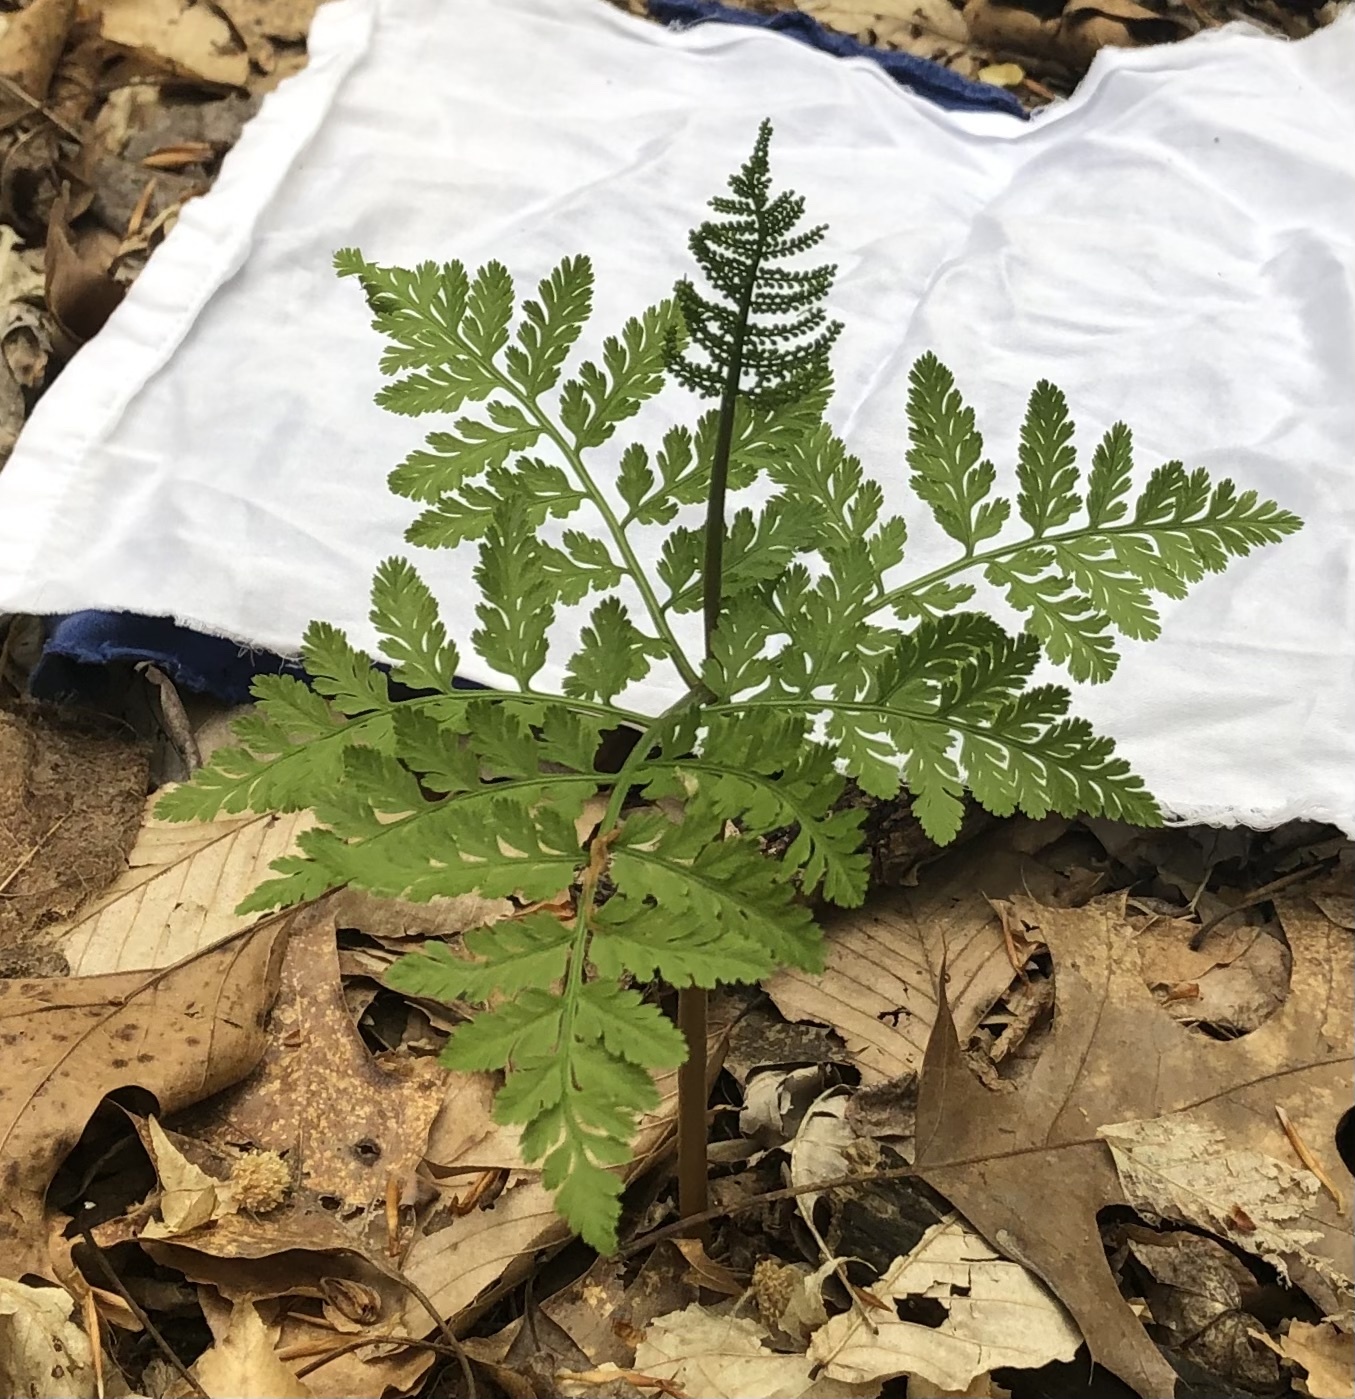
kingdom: Plantae
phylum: Tracheophyta
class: Polypodiopsida
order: Ophioglossales
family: Ophioglossaceae
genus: Botrypus
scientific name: Botrypus virginianus
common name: Common grapefern
